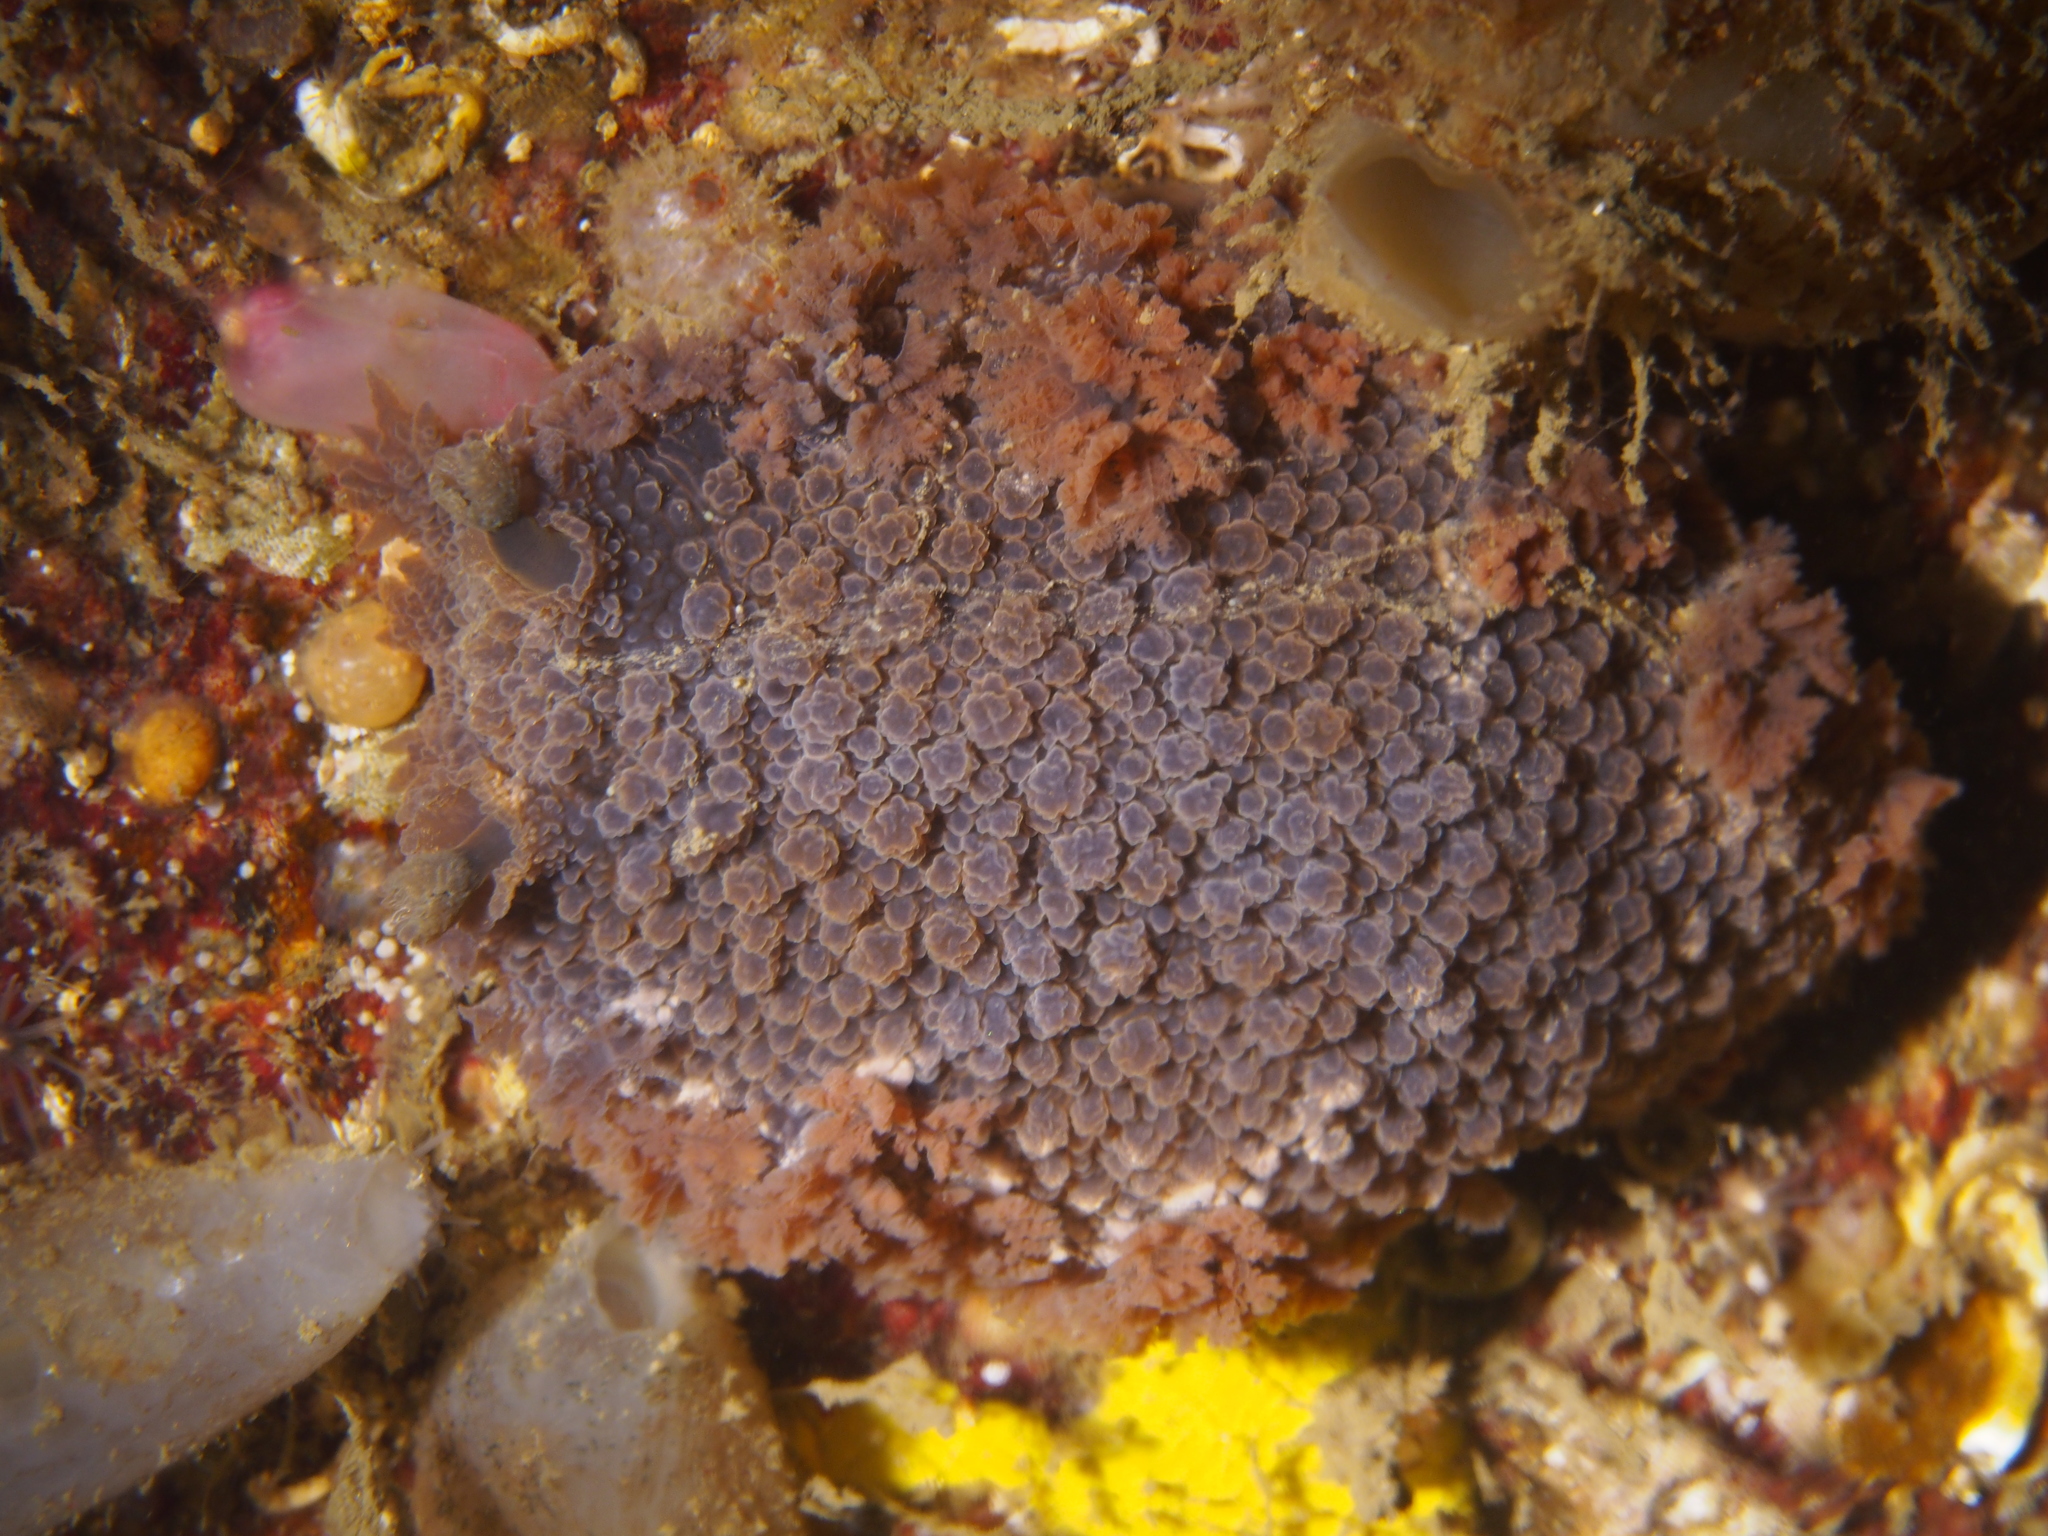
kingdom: Animalia
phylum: Mollusca
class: Gastropoda
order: Nudibranchia
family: Tritoniidae
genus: Tritonia
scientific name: Tritonia hombergii
